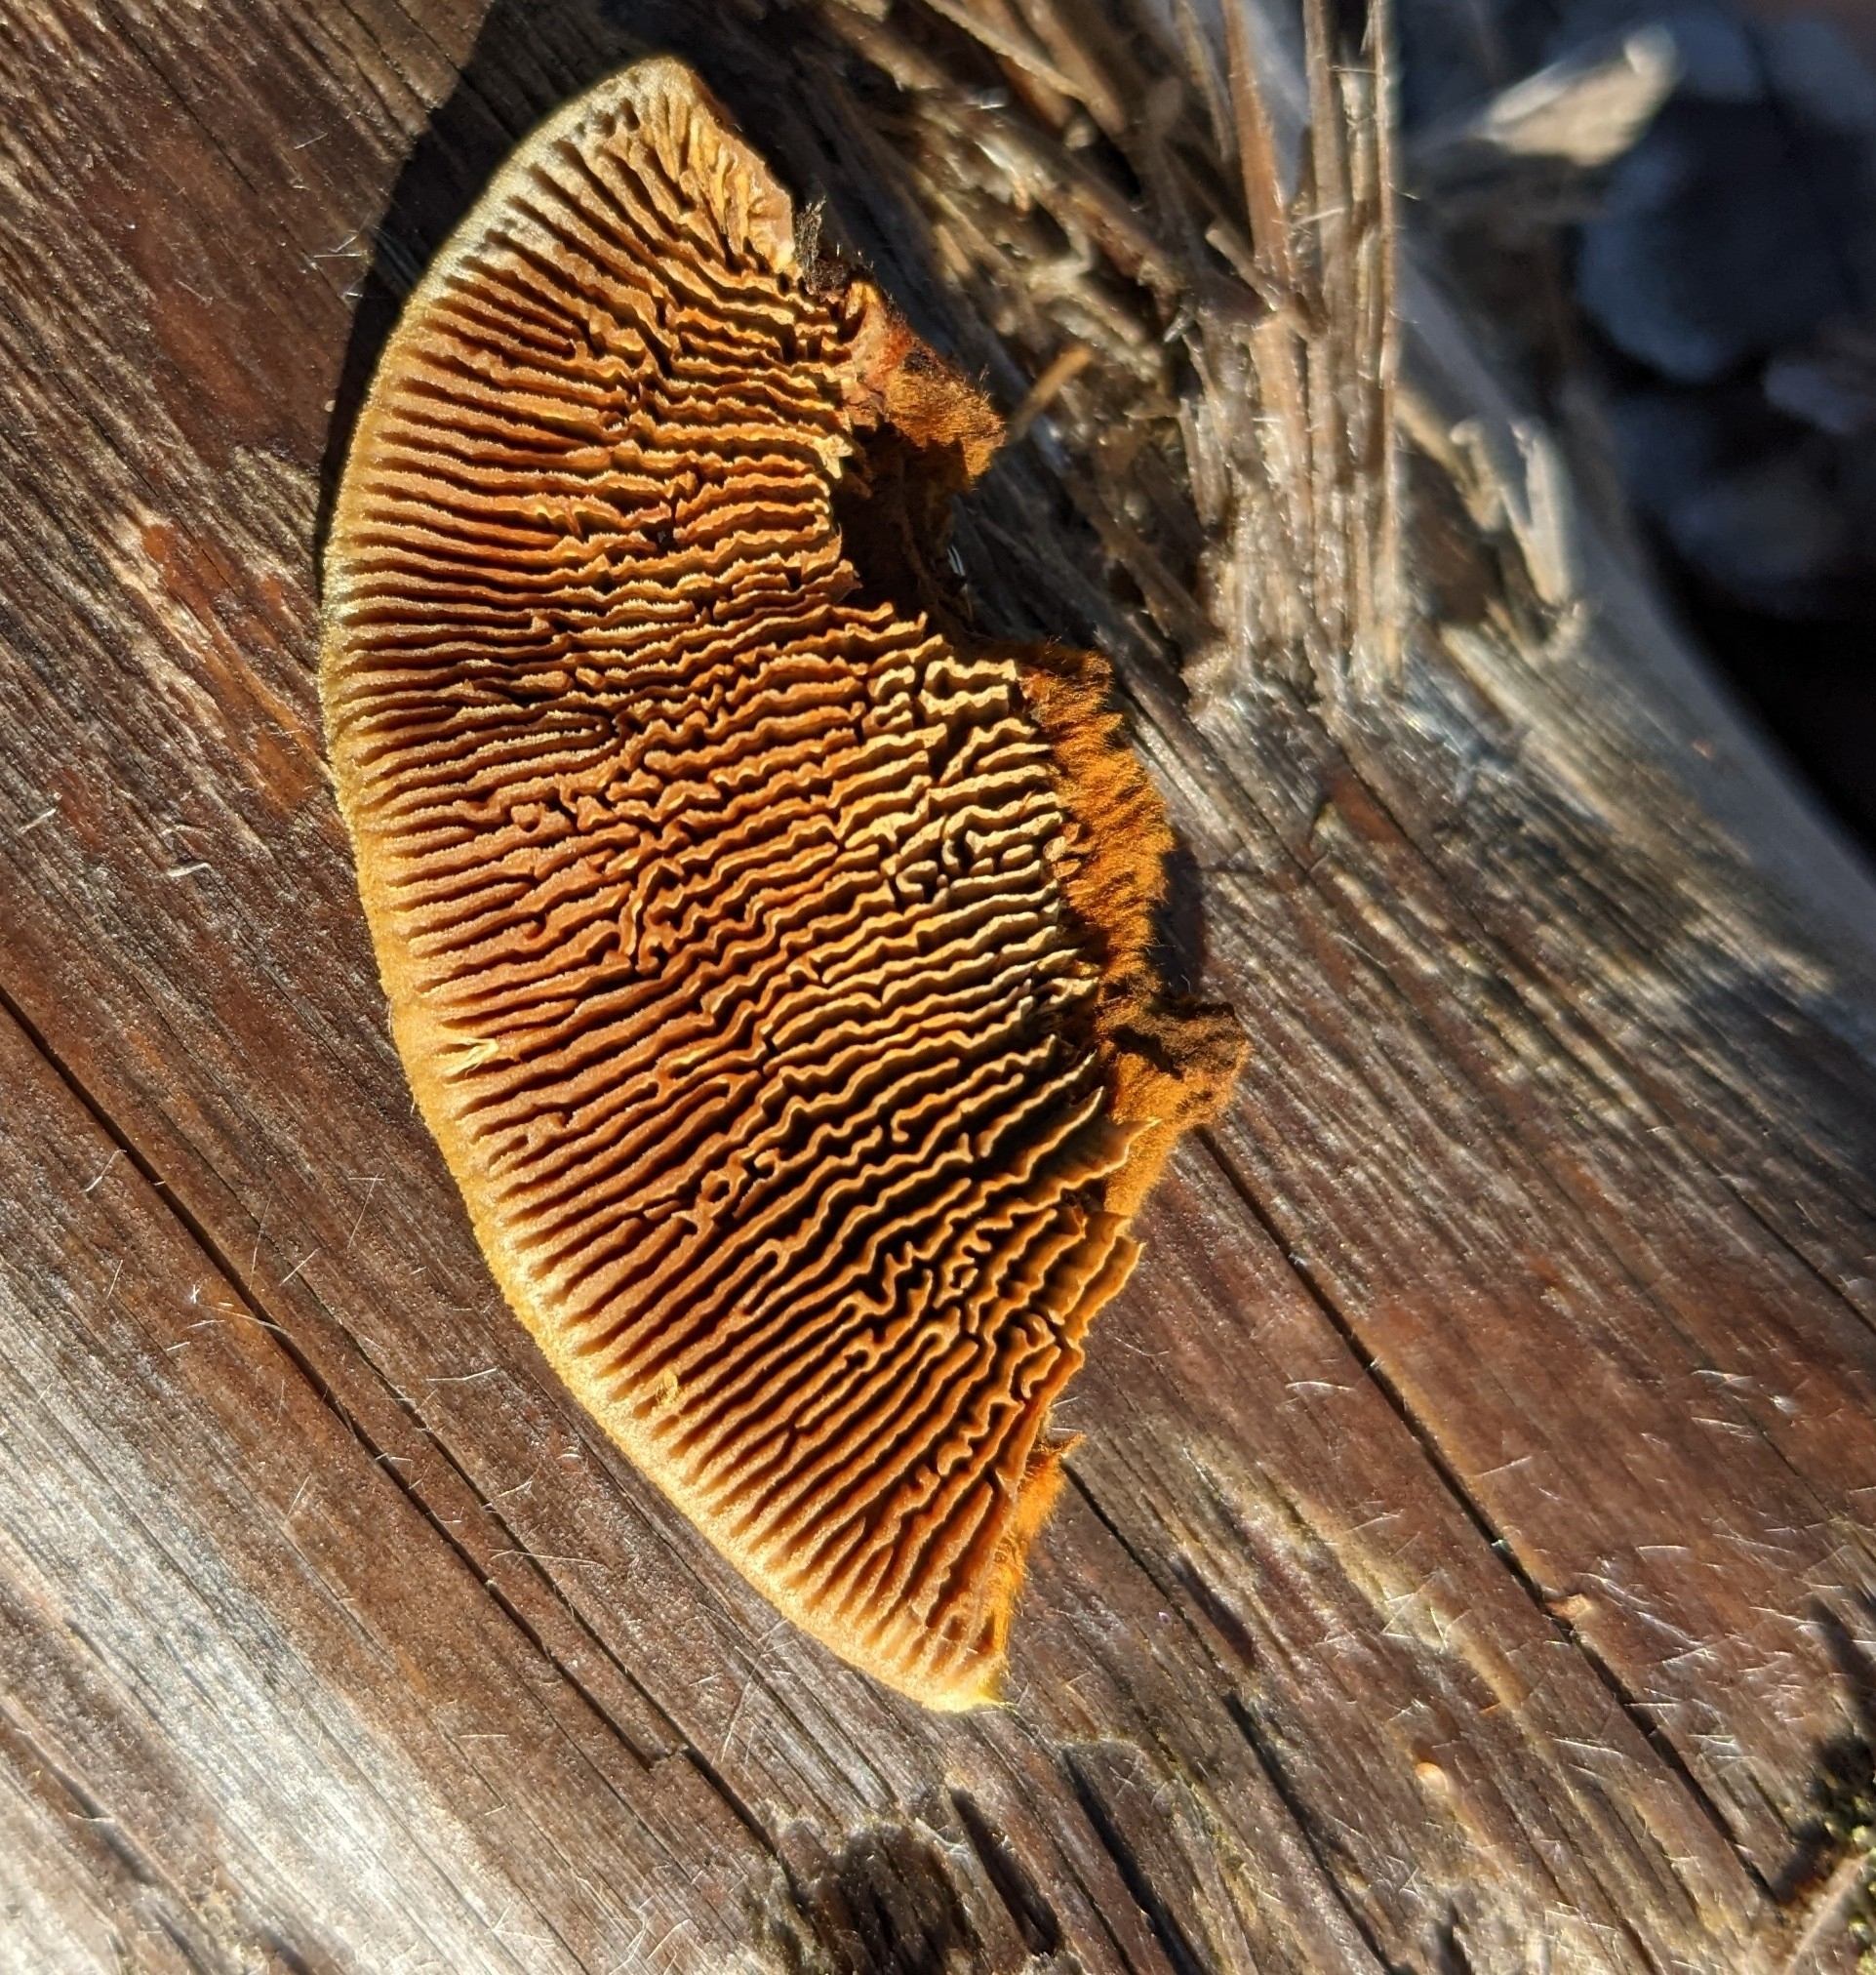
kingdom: Fungi
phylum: Basidiomycota
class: Agaricomycetes
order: Gloeophyllales
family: Gloeophyllaceae
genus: Gloeophyllum
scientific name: Gloeophyllum sepiarium
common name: Conifer mazegill
